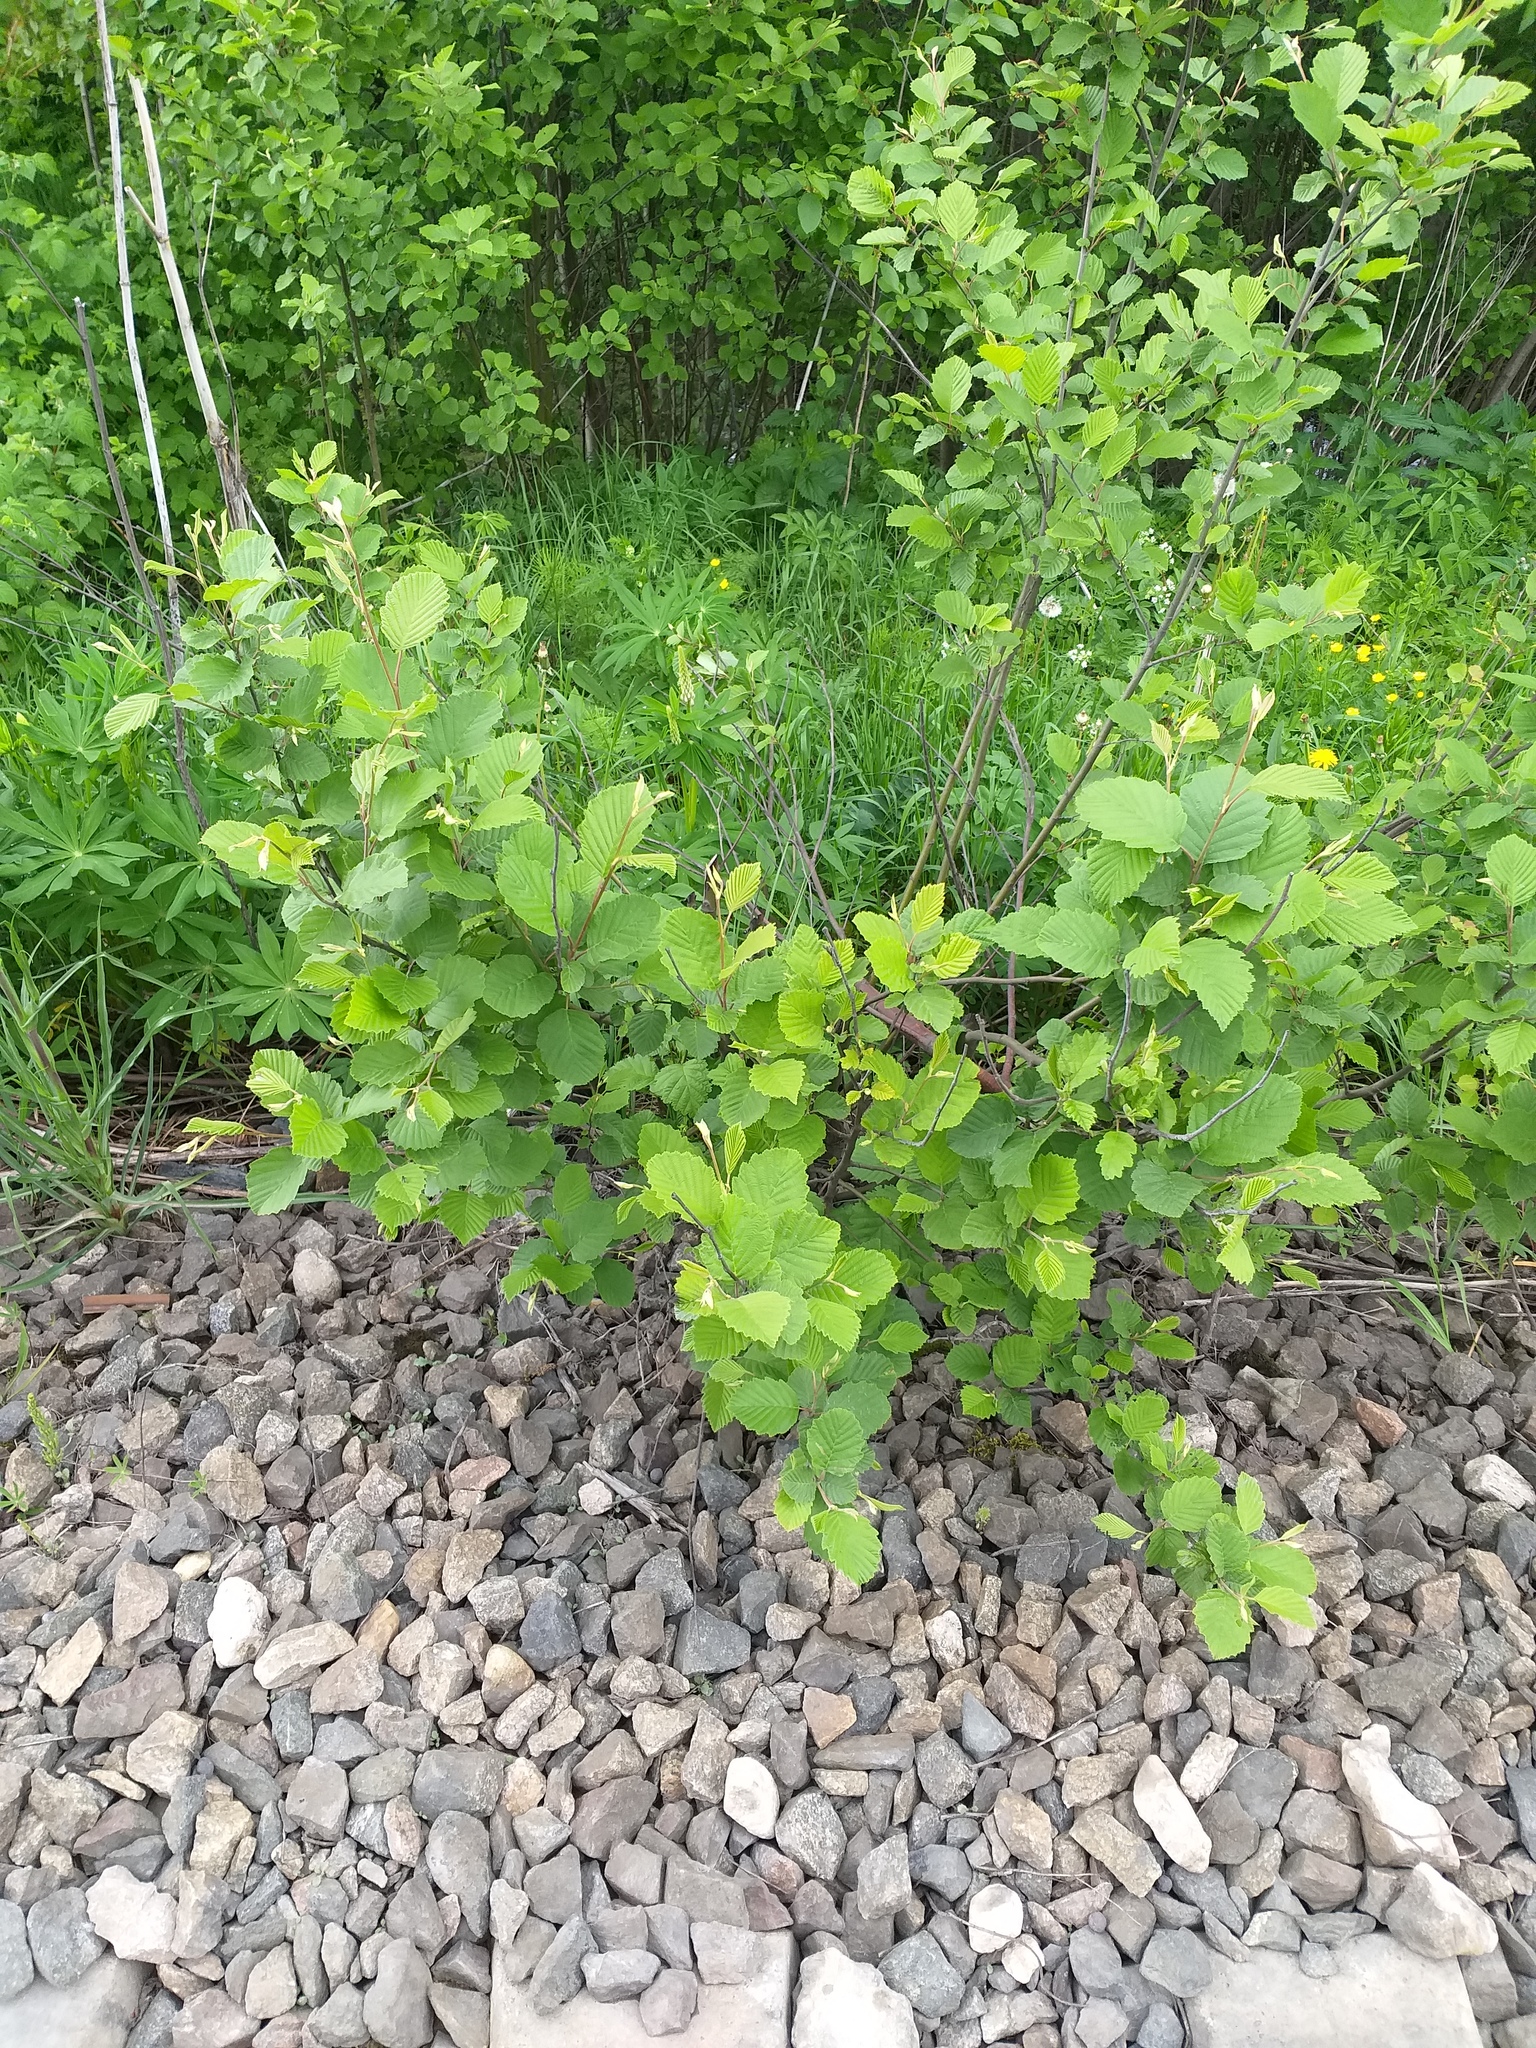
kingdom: Plantae
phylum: Tracheophyta
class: Magnoliopsida
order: Fagales
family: Betulaceae
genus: Alnus
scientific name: Alnus incana
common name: Grey alder
